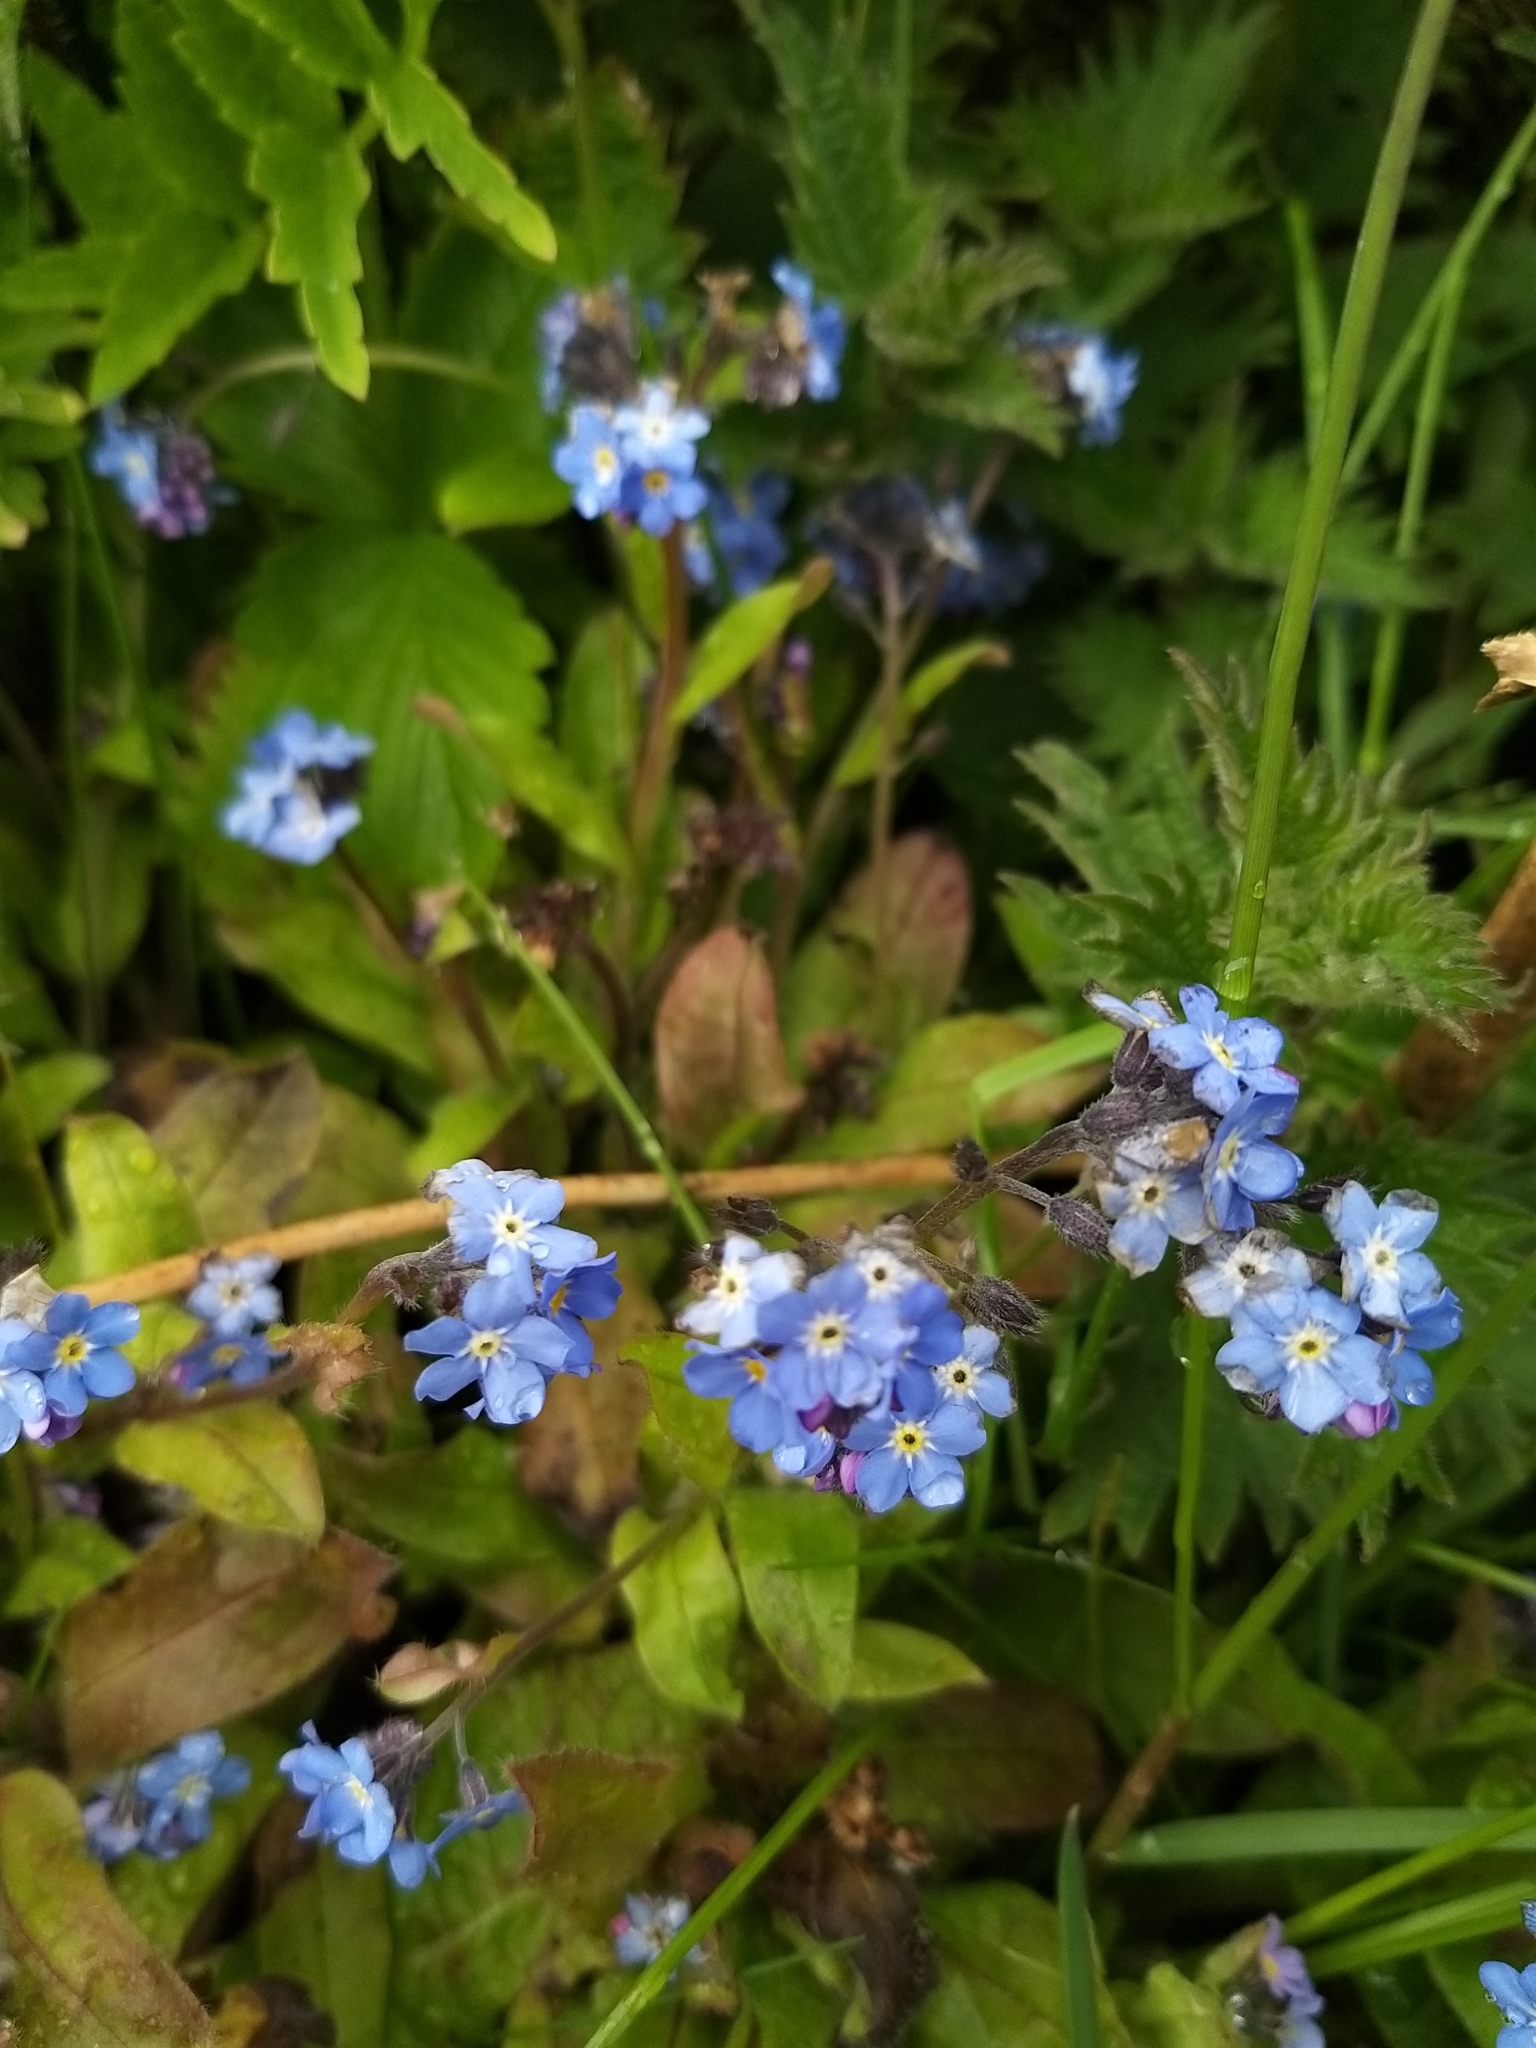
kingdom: Plantae
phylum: Tracheophyta
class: Magnoliopsida
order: Boraginales
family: Boraginaceae
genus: Myosotis
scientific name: Myosotis sylvatica
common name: Wood forget-me-not
